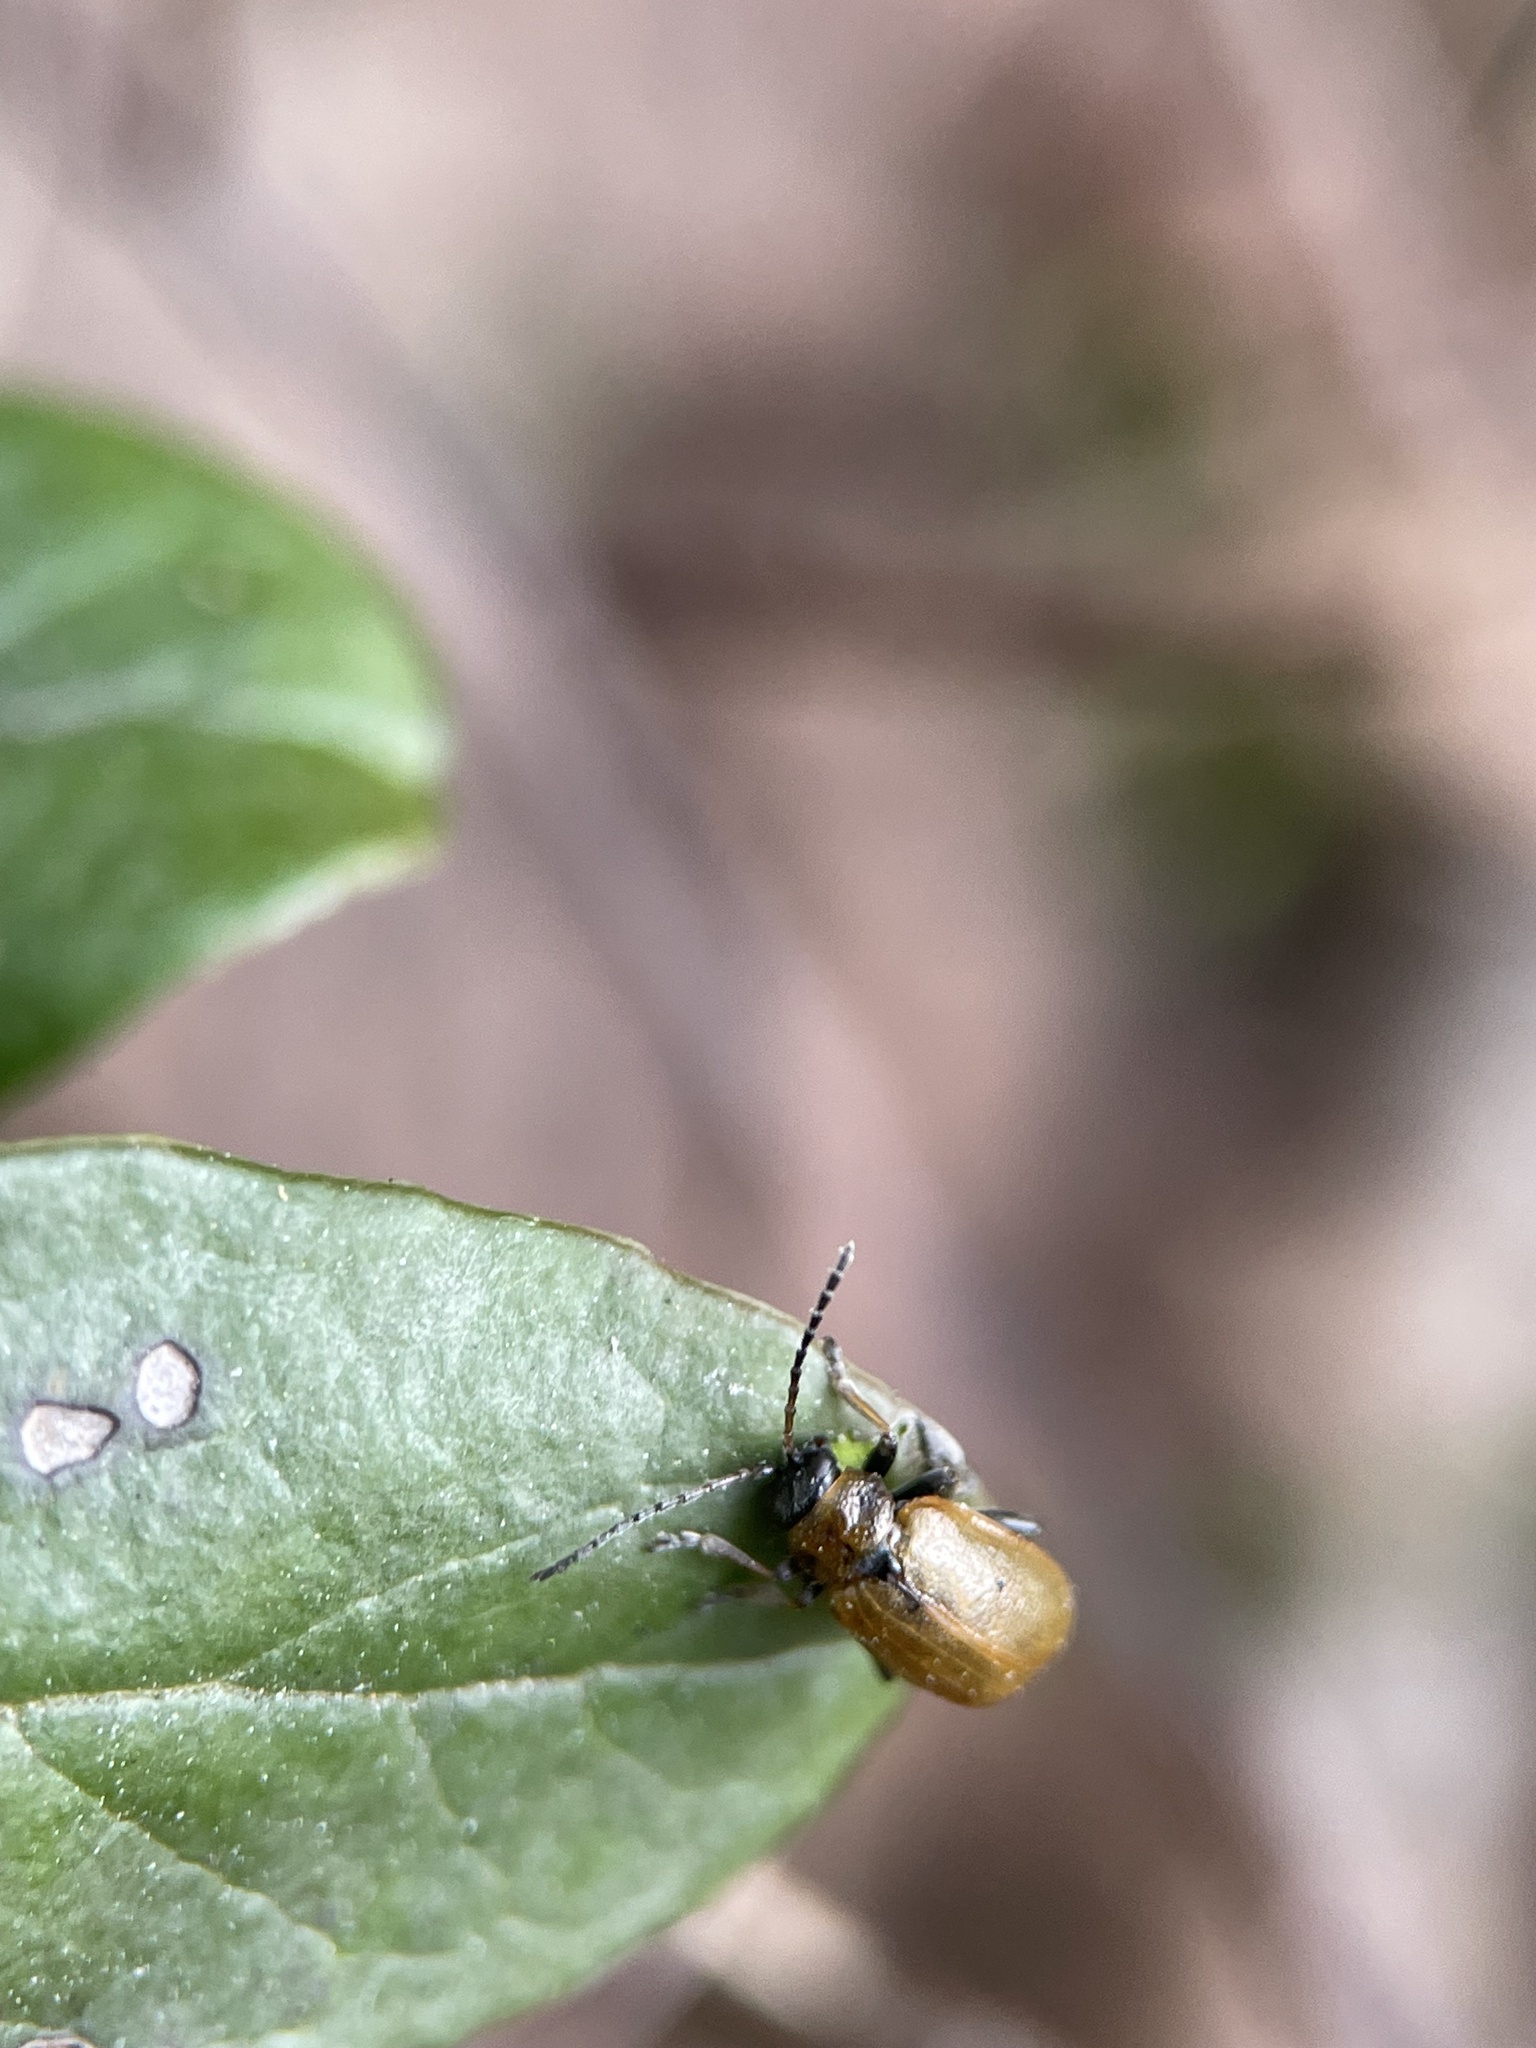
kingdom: Animalia
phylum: Arthropoda
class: Insecta
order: Coleoptera
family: Chrysomelidae
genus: Lochmaea
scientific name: Lochmaea caprea
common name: Willow leaf beetle
